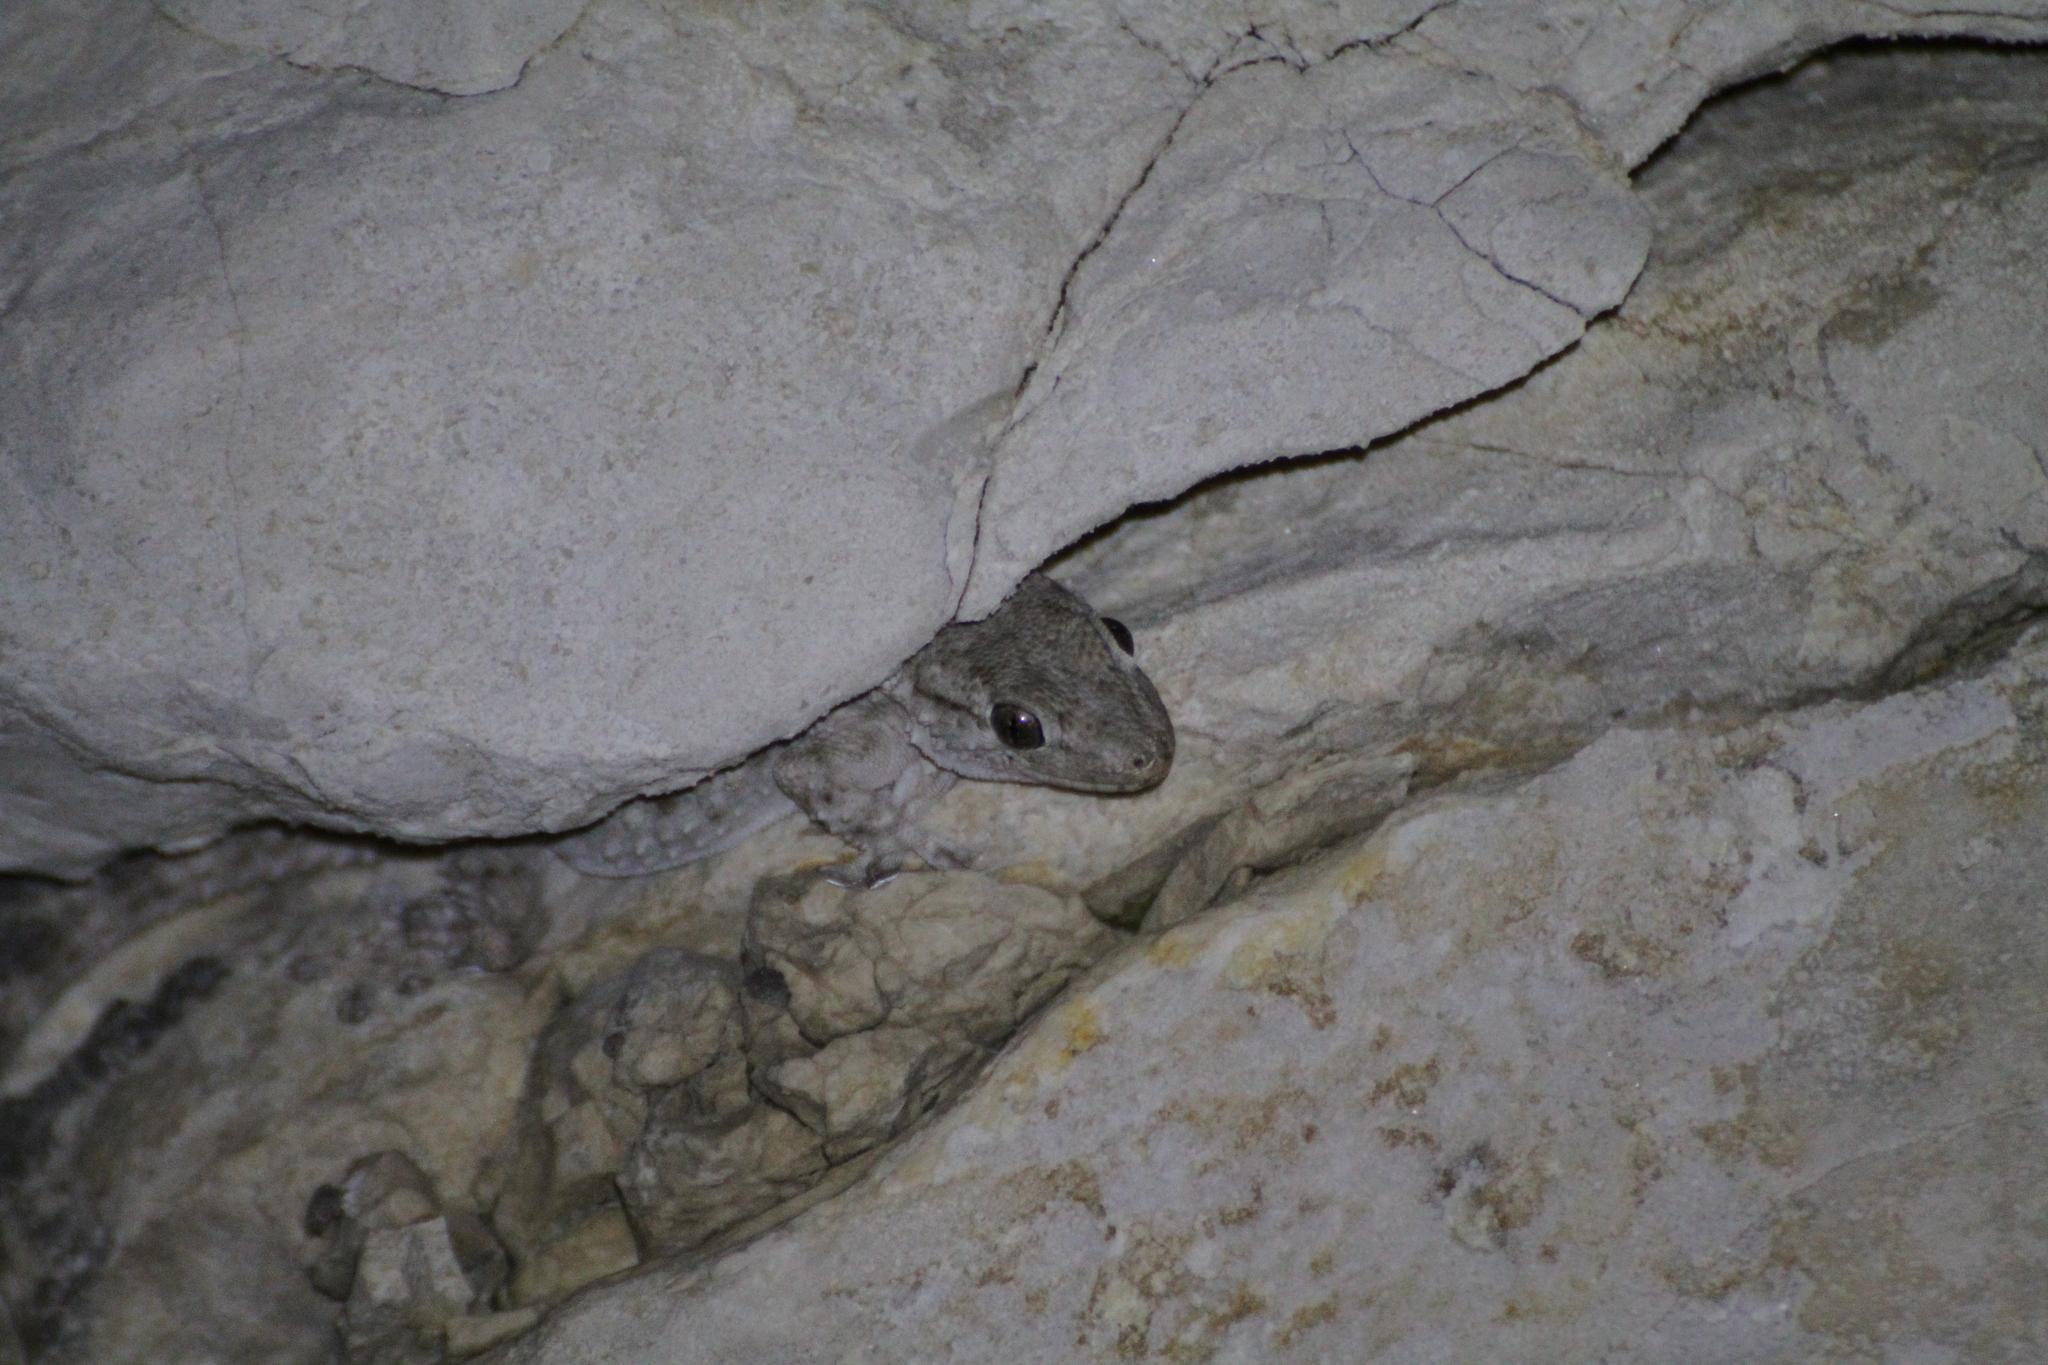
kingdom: Animalia
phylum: Chordata
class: Squamata
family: Phyllodactylidae
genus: Tarentola
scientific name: Tarentola mauritanica
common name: Moorish gecko
